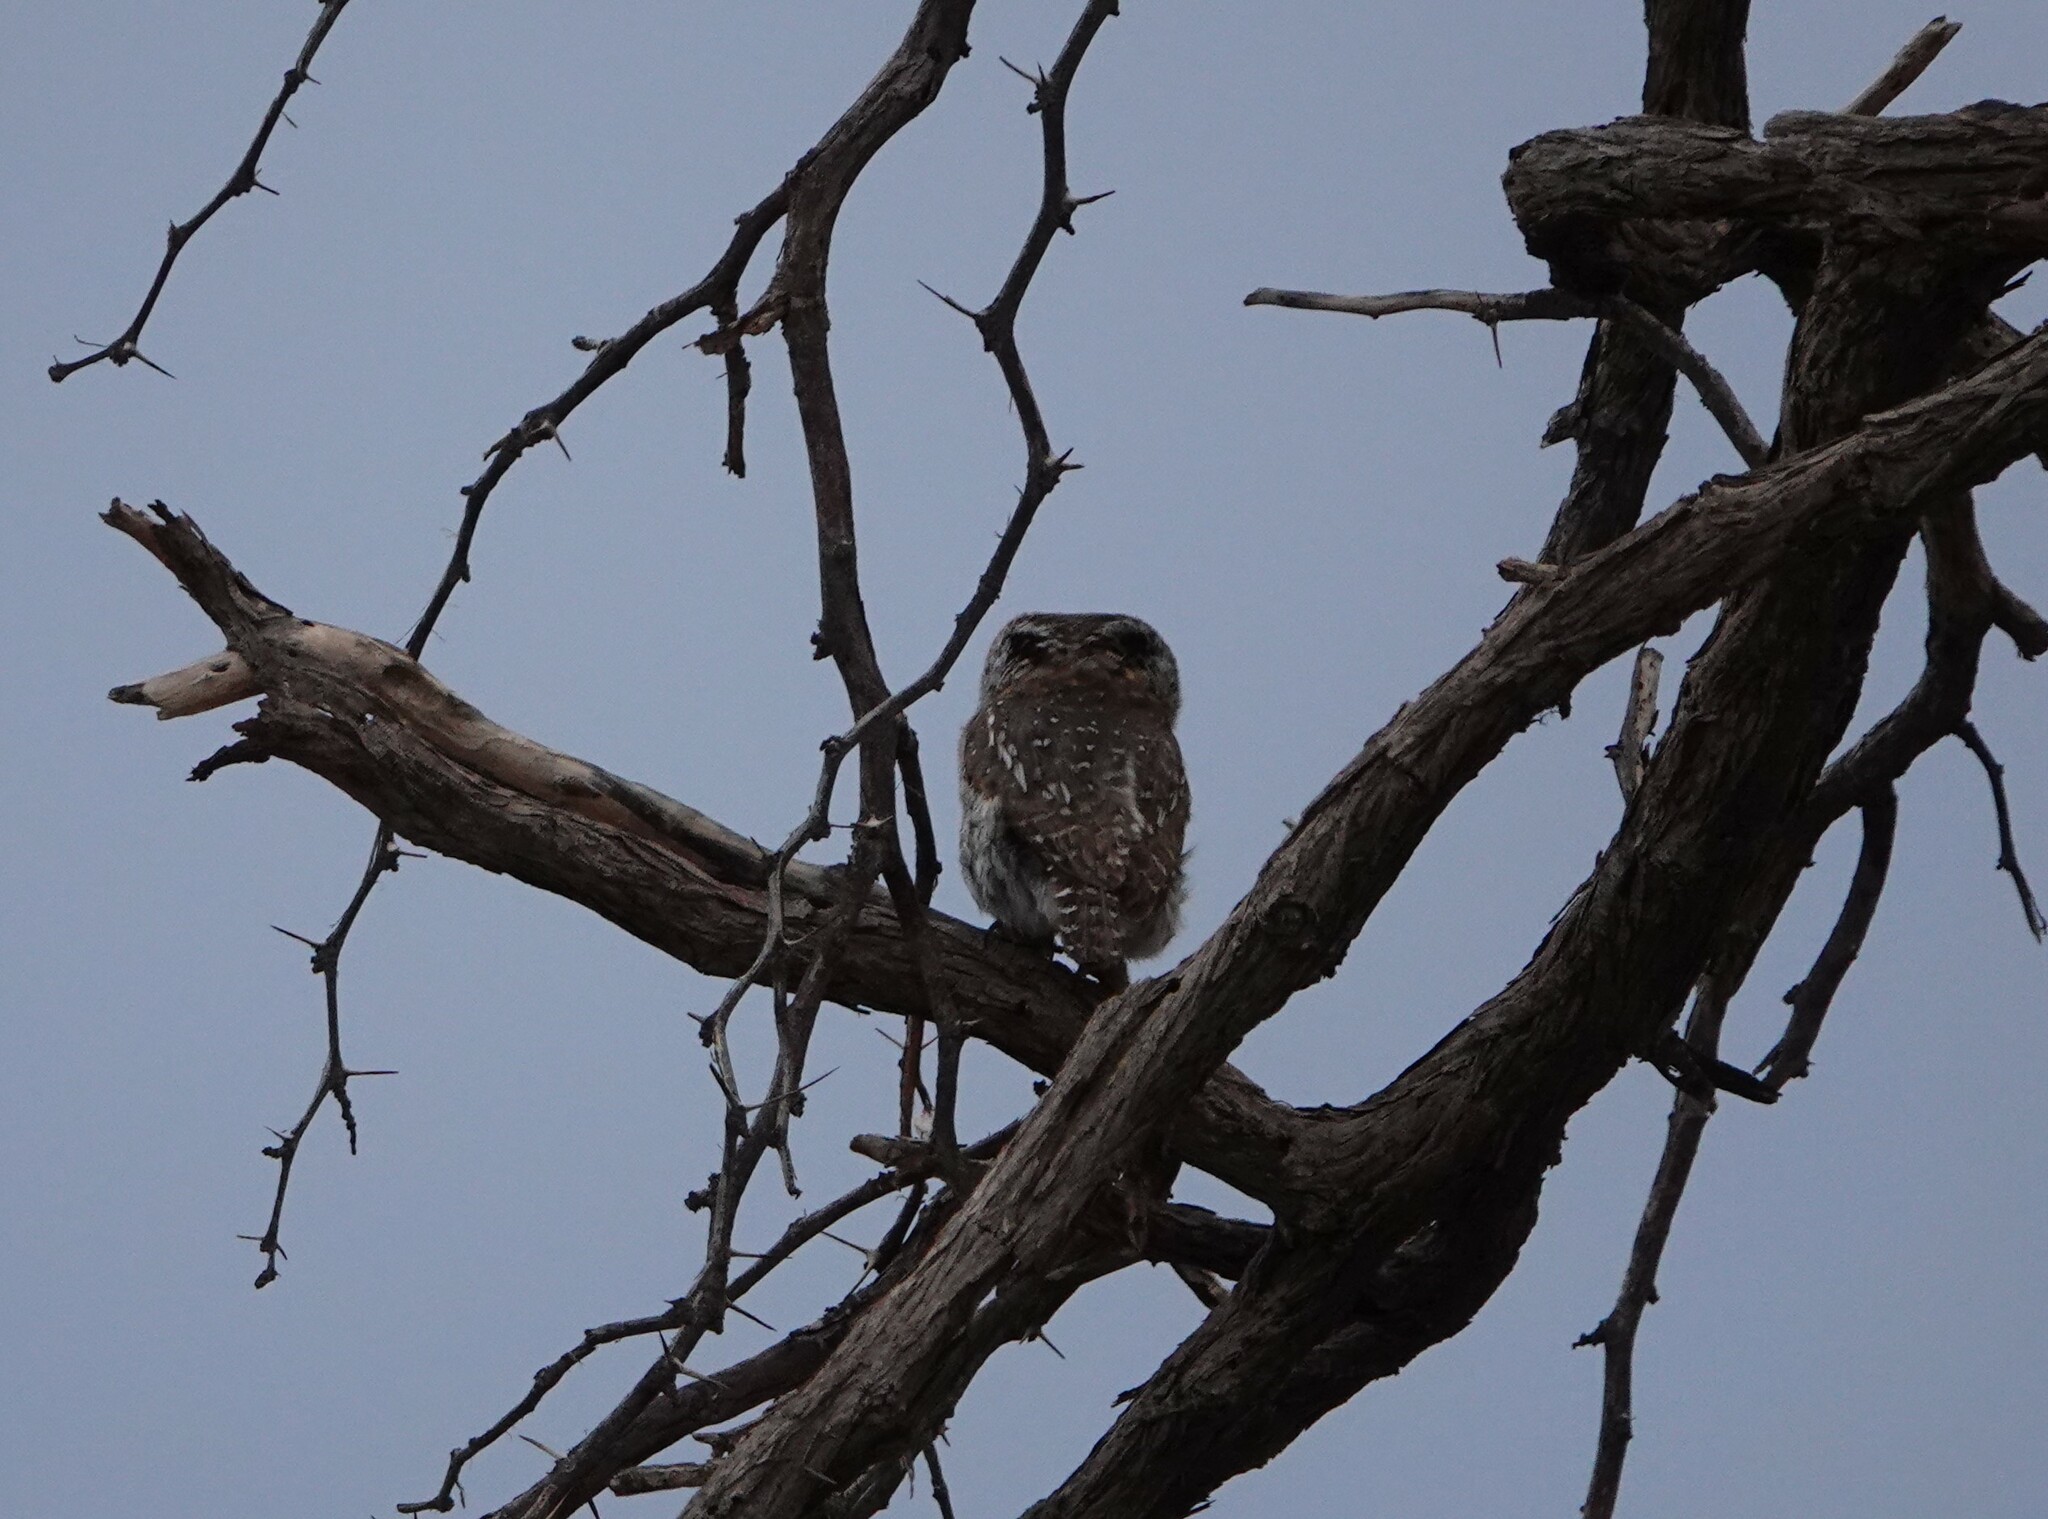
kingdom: Animalia
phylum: Chordata
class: Aves
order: Strigiformes
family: Strigidae
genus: Glaucidium
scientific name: Glaucidium perlatum
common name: Pearl-spotted owlet
